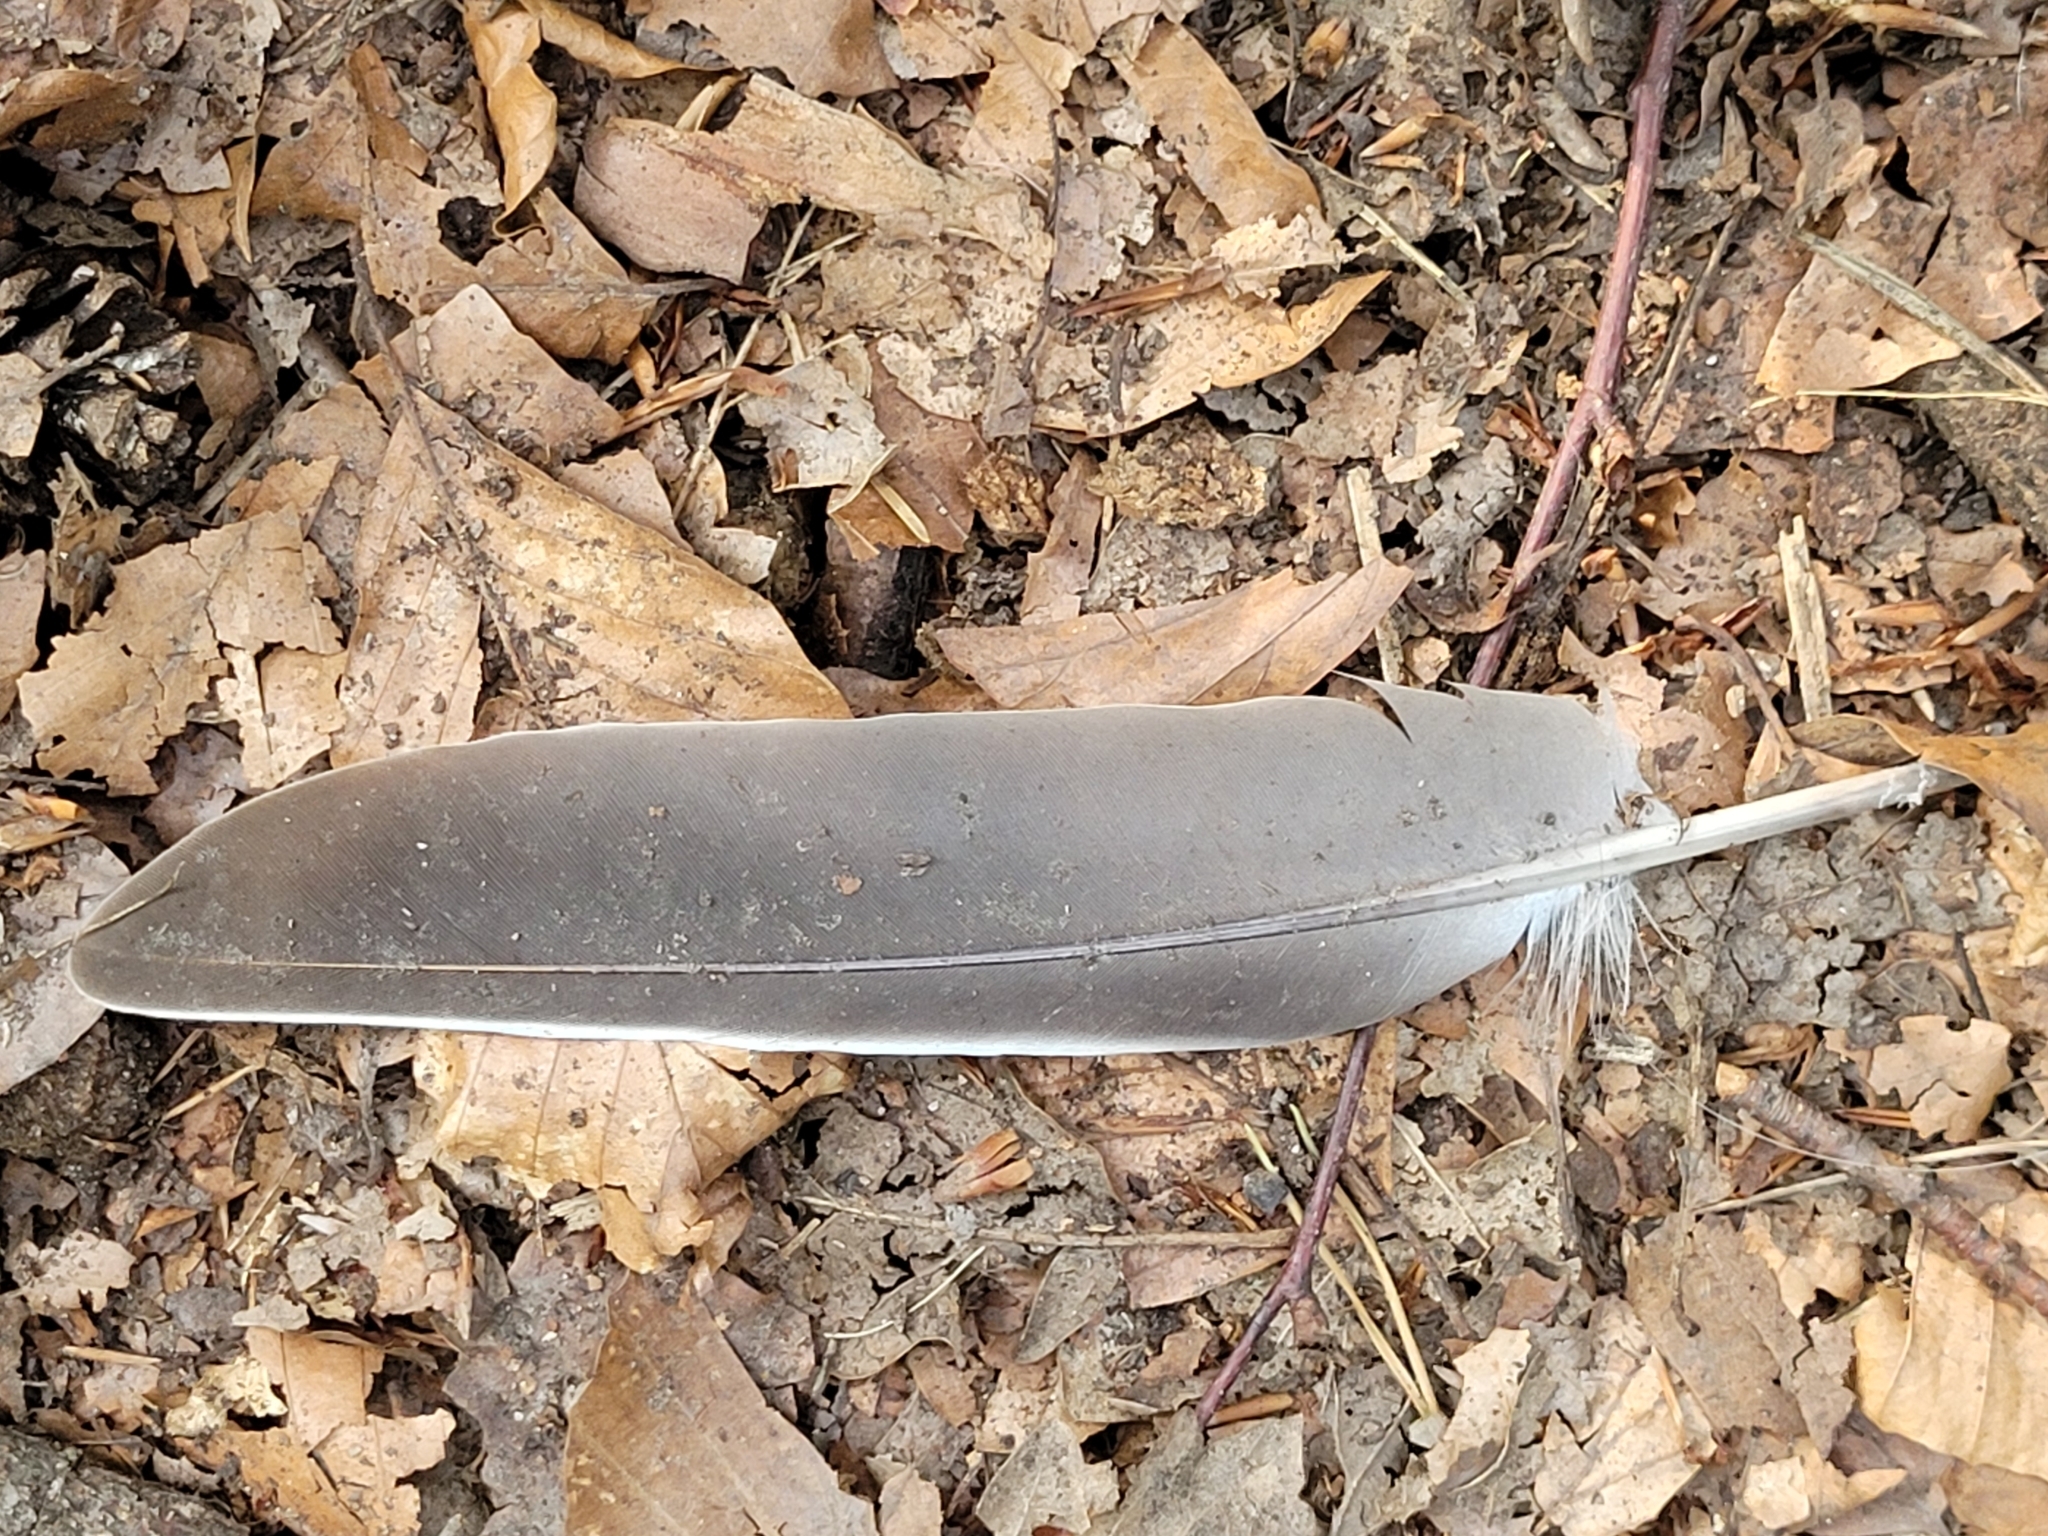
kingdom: Animalia
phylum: Chordata
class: Aves
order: Columbiformes
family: Columbidae
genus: Columba
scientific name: Columba palumbus
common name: Common wood pigeon
